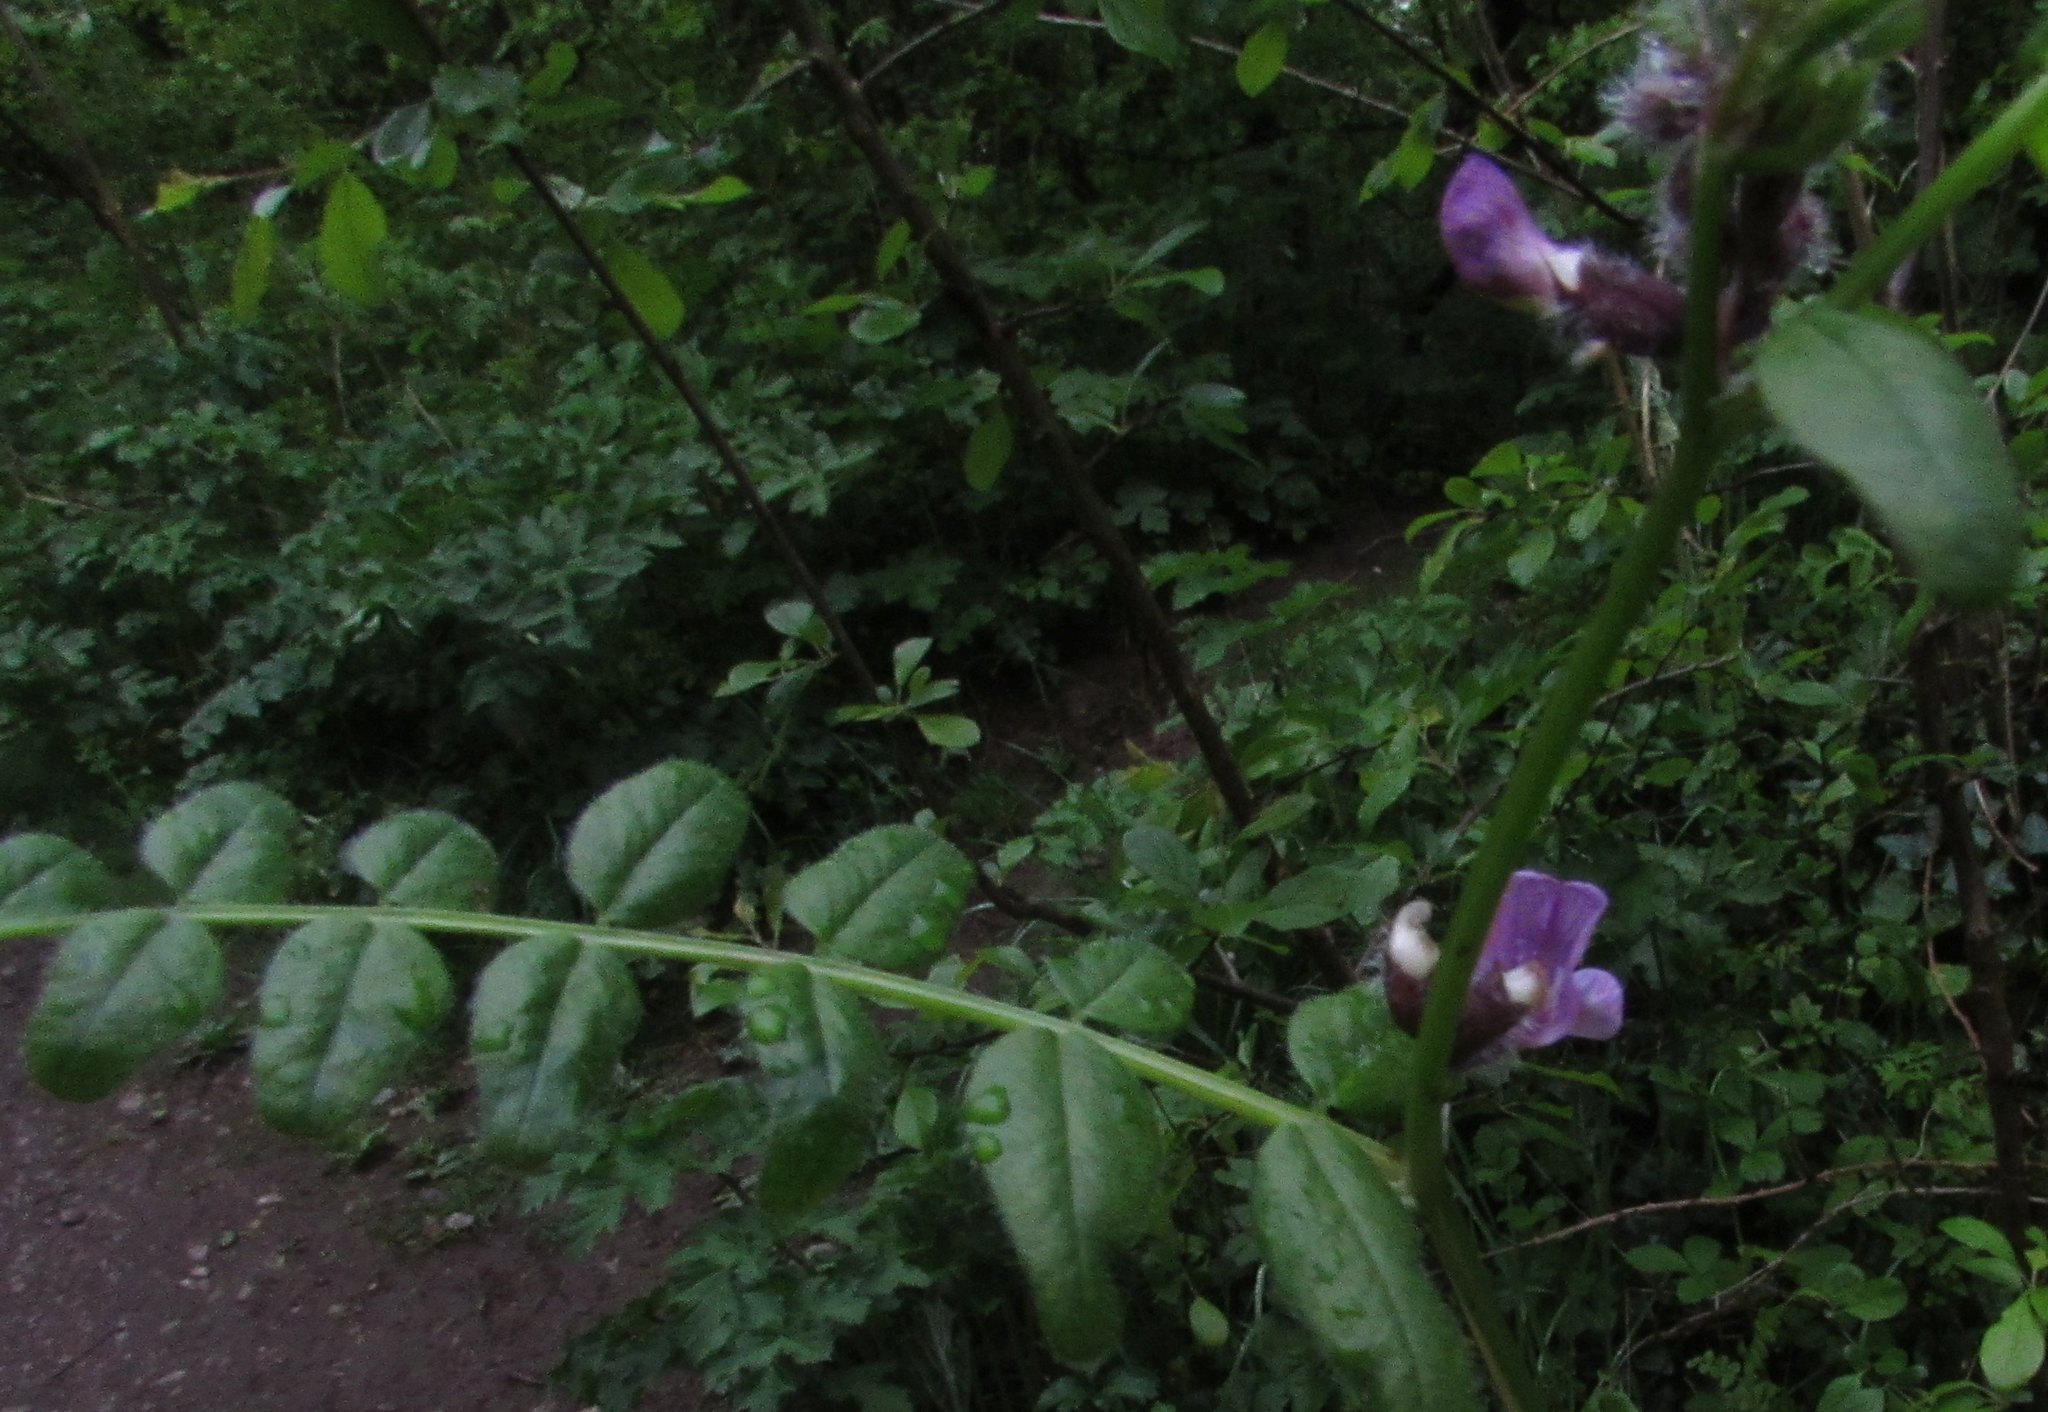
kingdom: Plantae
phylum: Tracheophyta
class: Magnoliopsida
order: Fabales
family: Fabaceae
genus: Vicia
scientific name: Vicia sepium
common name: Bush vetch
